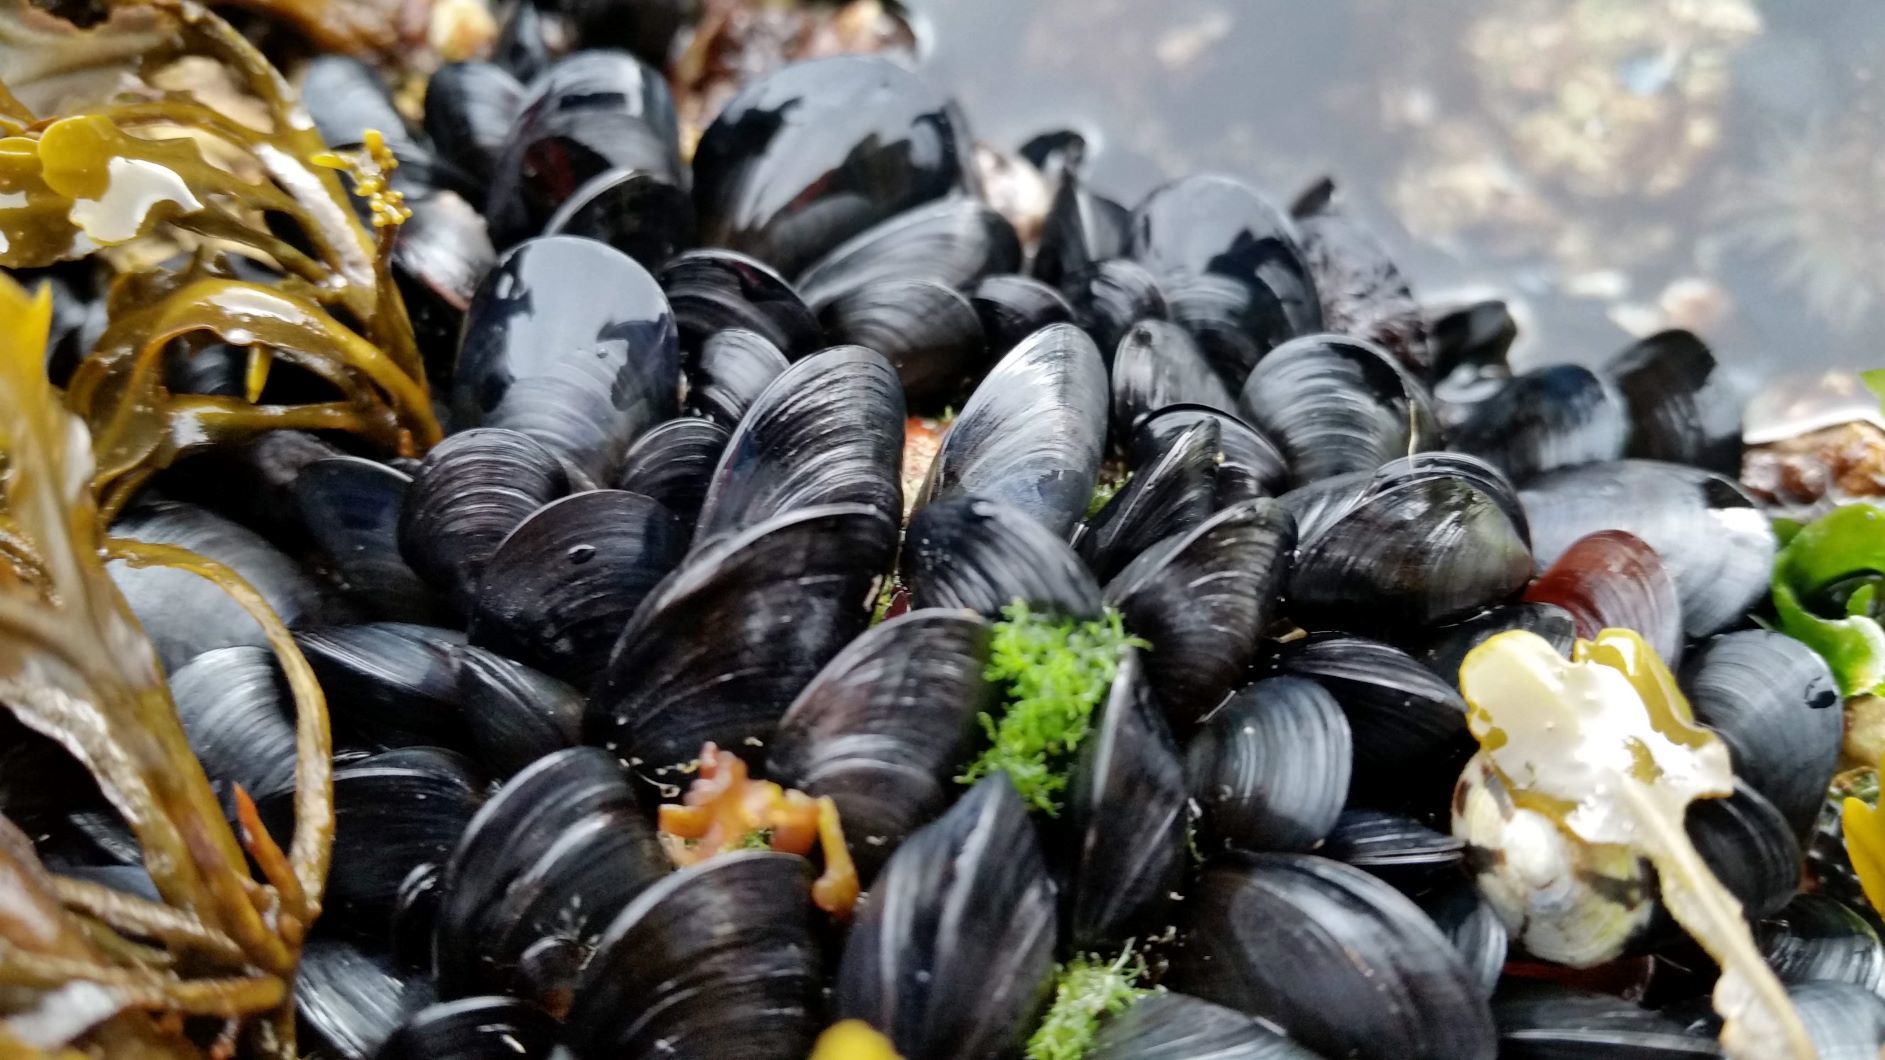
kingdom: Animalia
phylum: Mollusca
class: Bivalvia
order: Mytilida
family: Mytilidae
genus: Mytilus
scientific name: Mytilus trossulus
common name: Northern blue mussel
